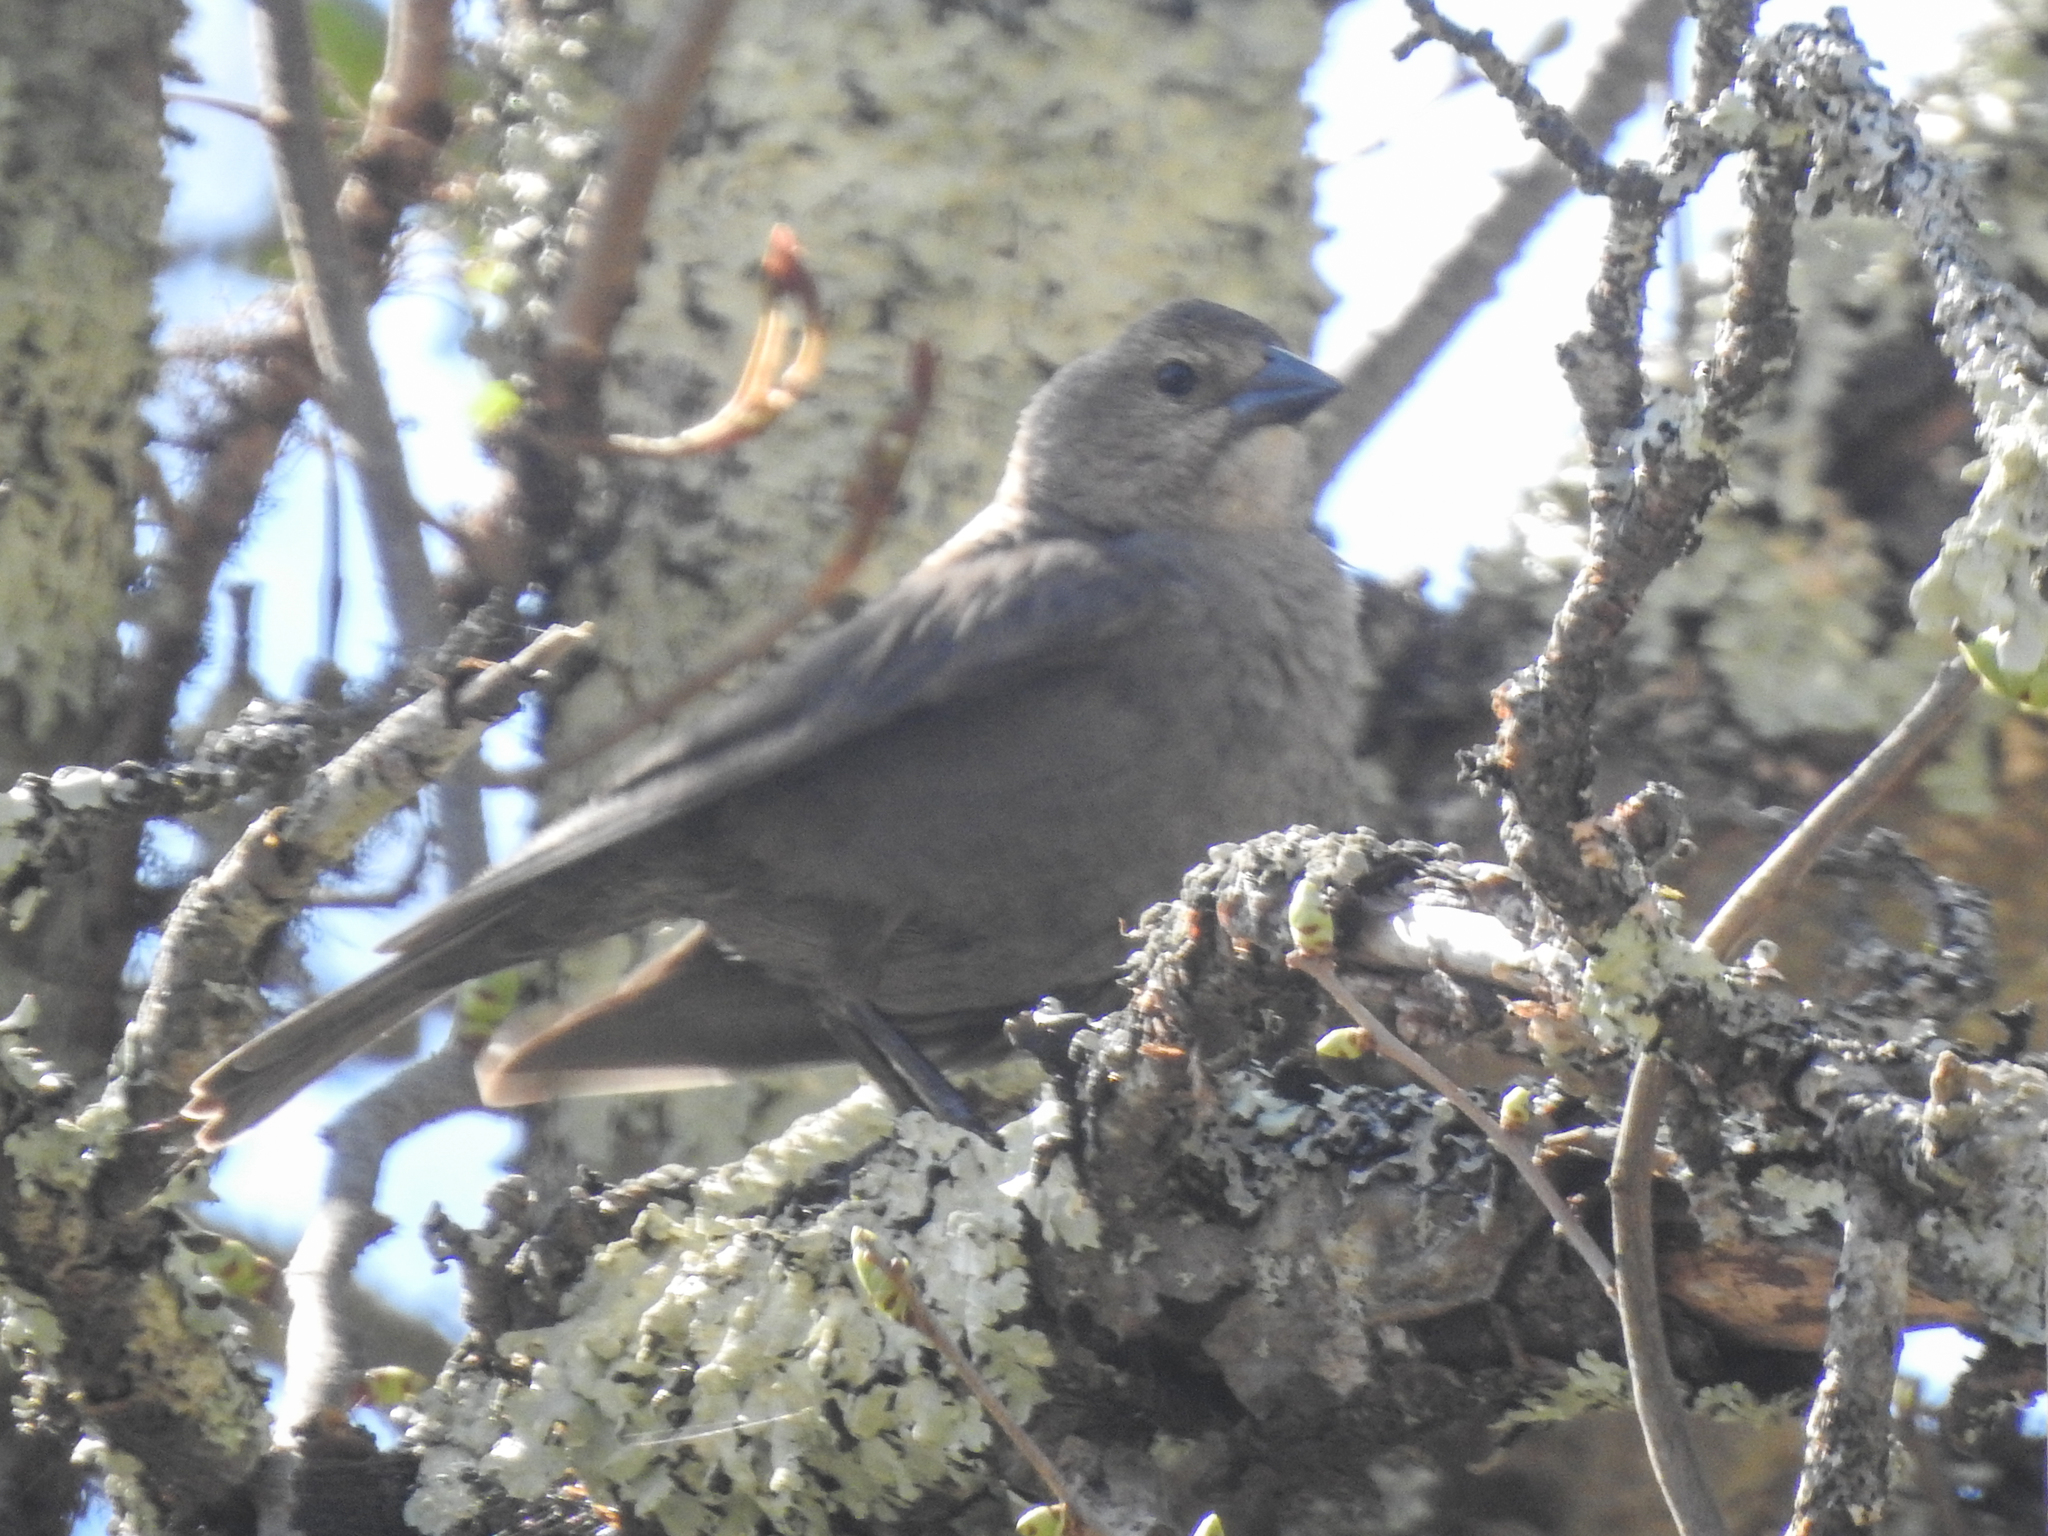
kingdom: Animalia
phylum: Chordata
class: Aves
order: Passeriformes
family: Icteridae
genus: Molothrus
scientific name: Molothrus ater
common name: Brown-headed cowbird
